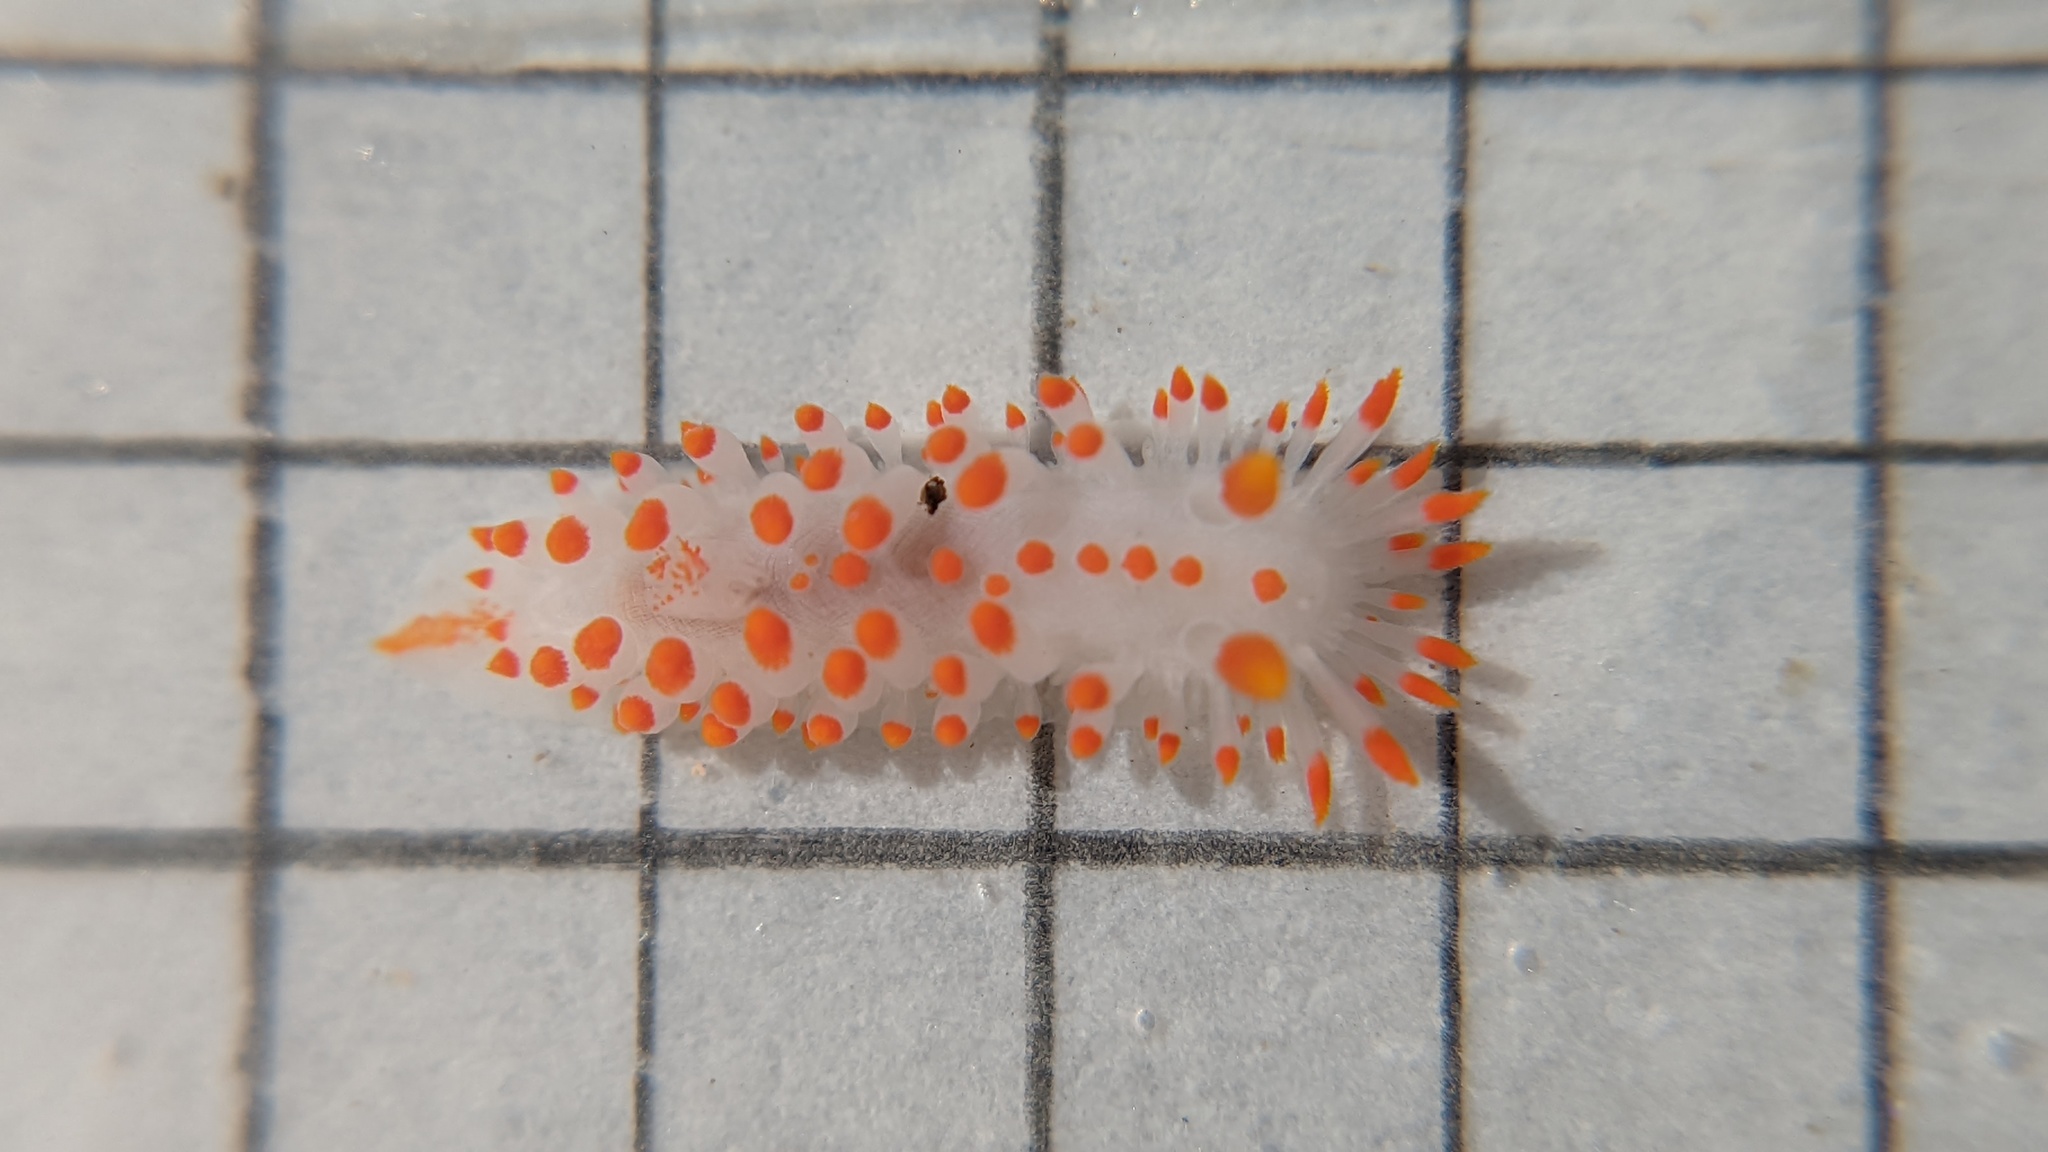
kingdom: Animalia
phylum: Mollusca
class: Gastropoda
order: Nudibranchia
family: Polyceridae
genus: Limacia
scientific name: Limacia mcdonaldi
